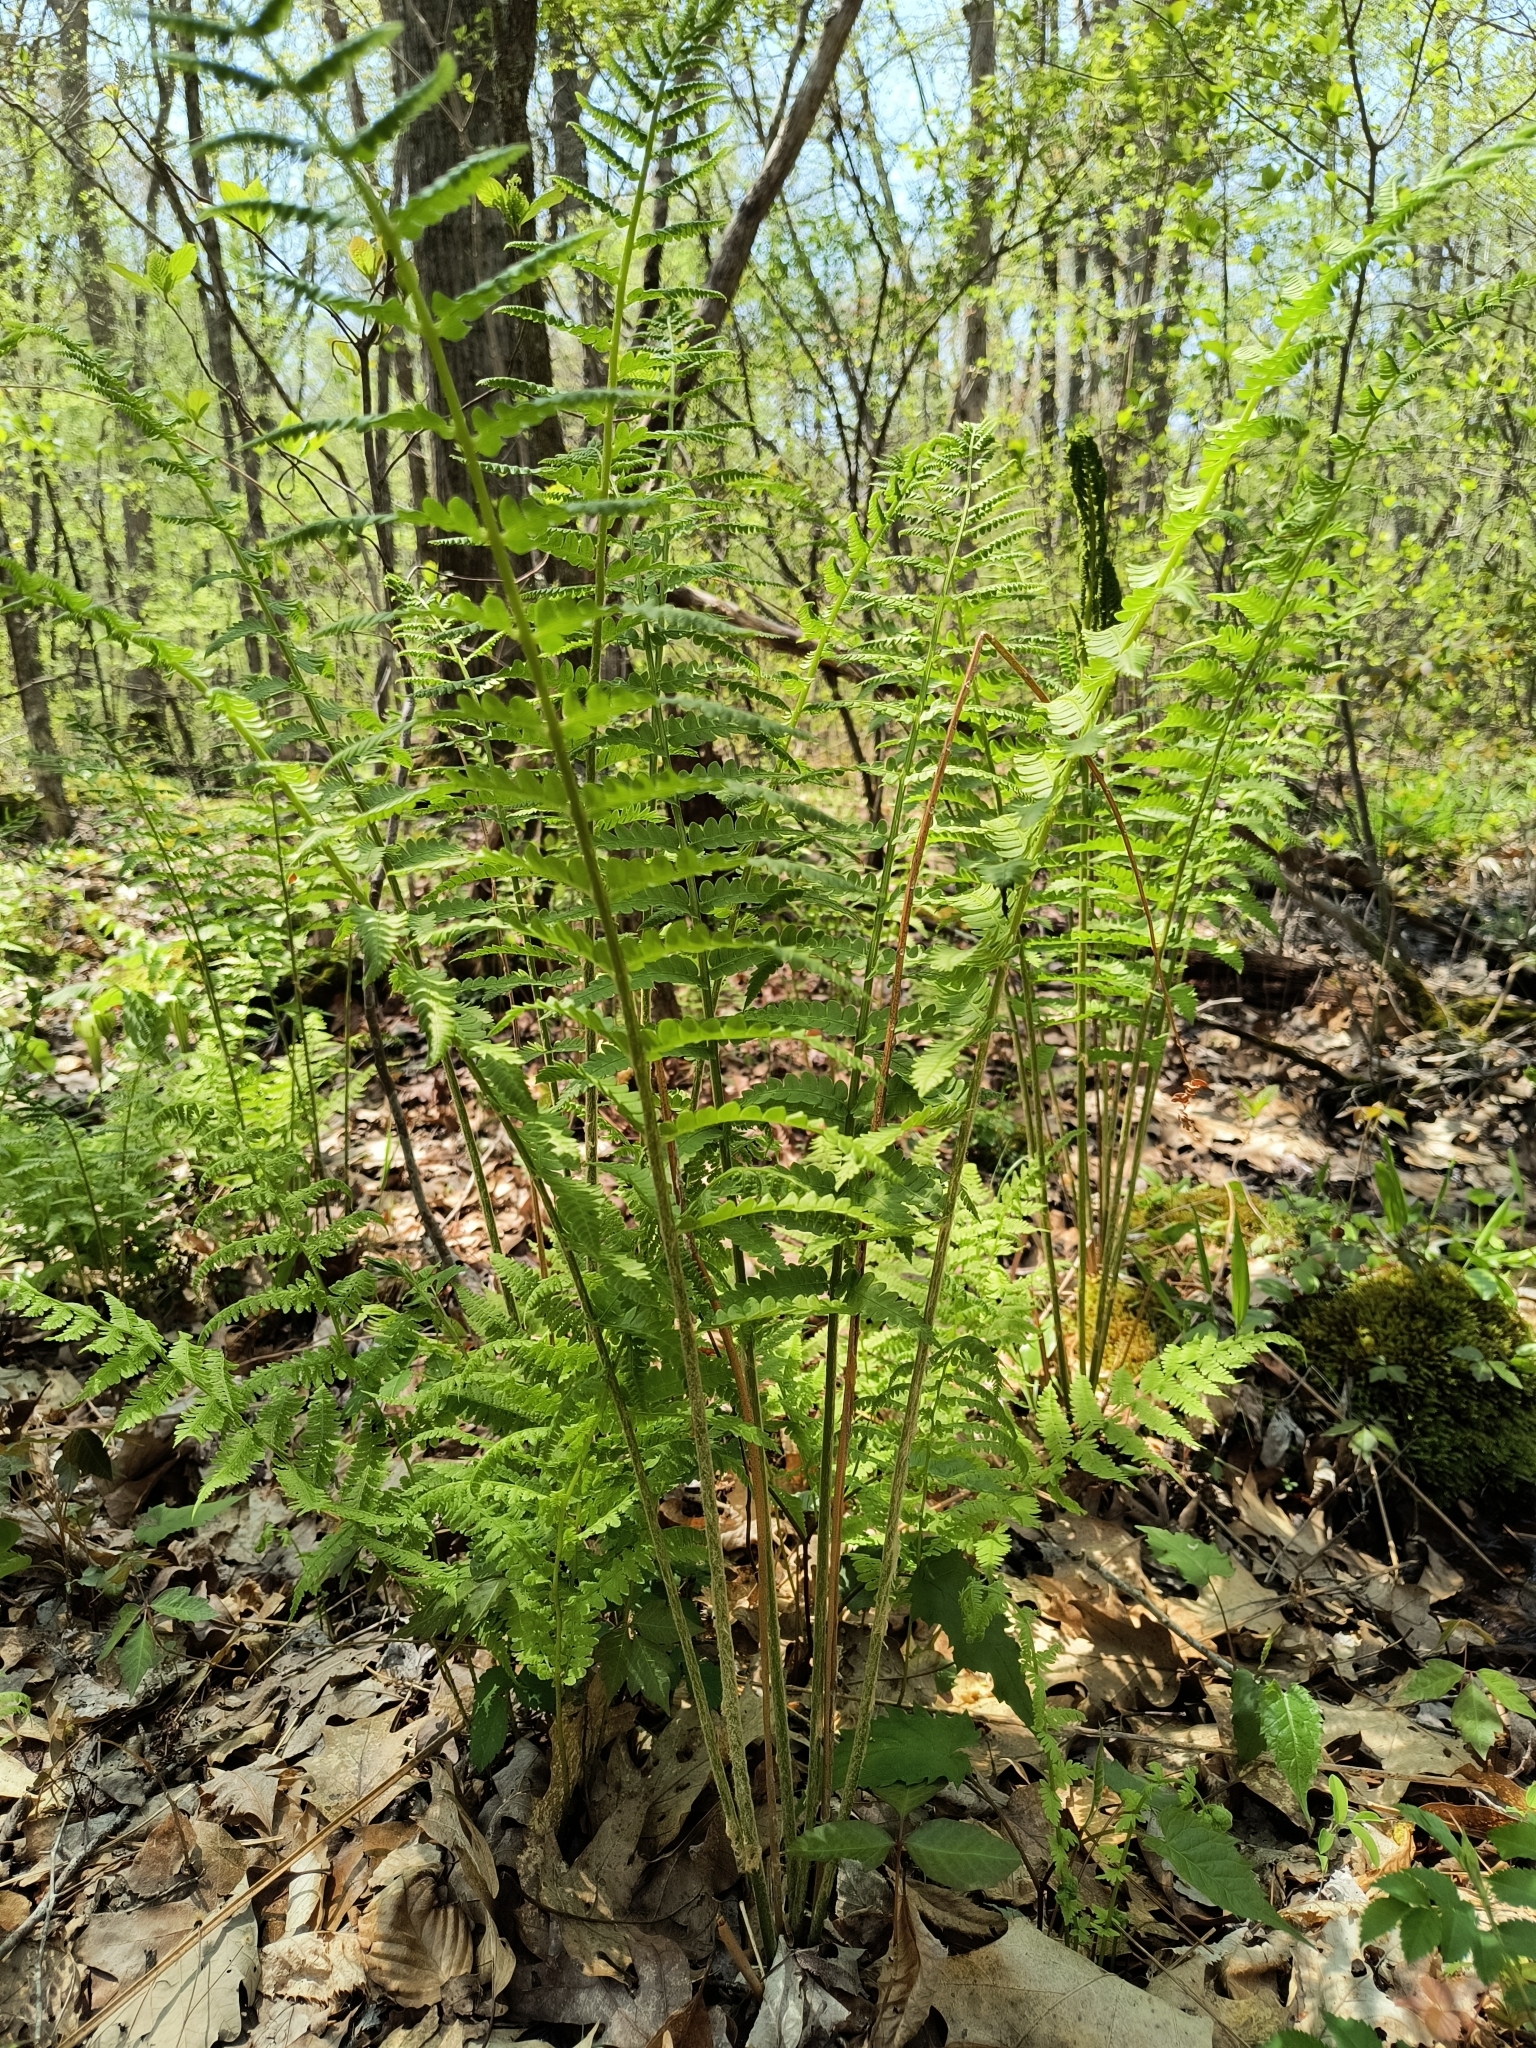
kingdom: Plantae
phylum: Tracheophyta
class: Polypodiopsida
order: Osmundales
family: Osmundaceae
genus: Osmundastrum
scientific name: Osmundastrum cinnamomeum
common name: Cinnamon fern
